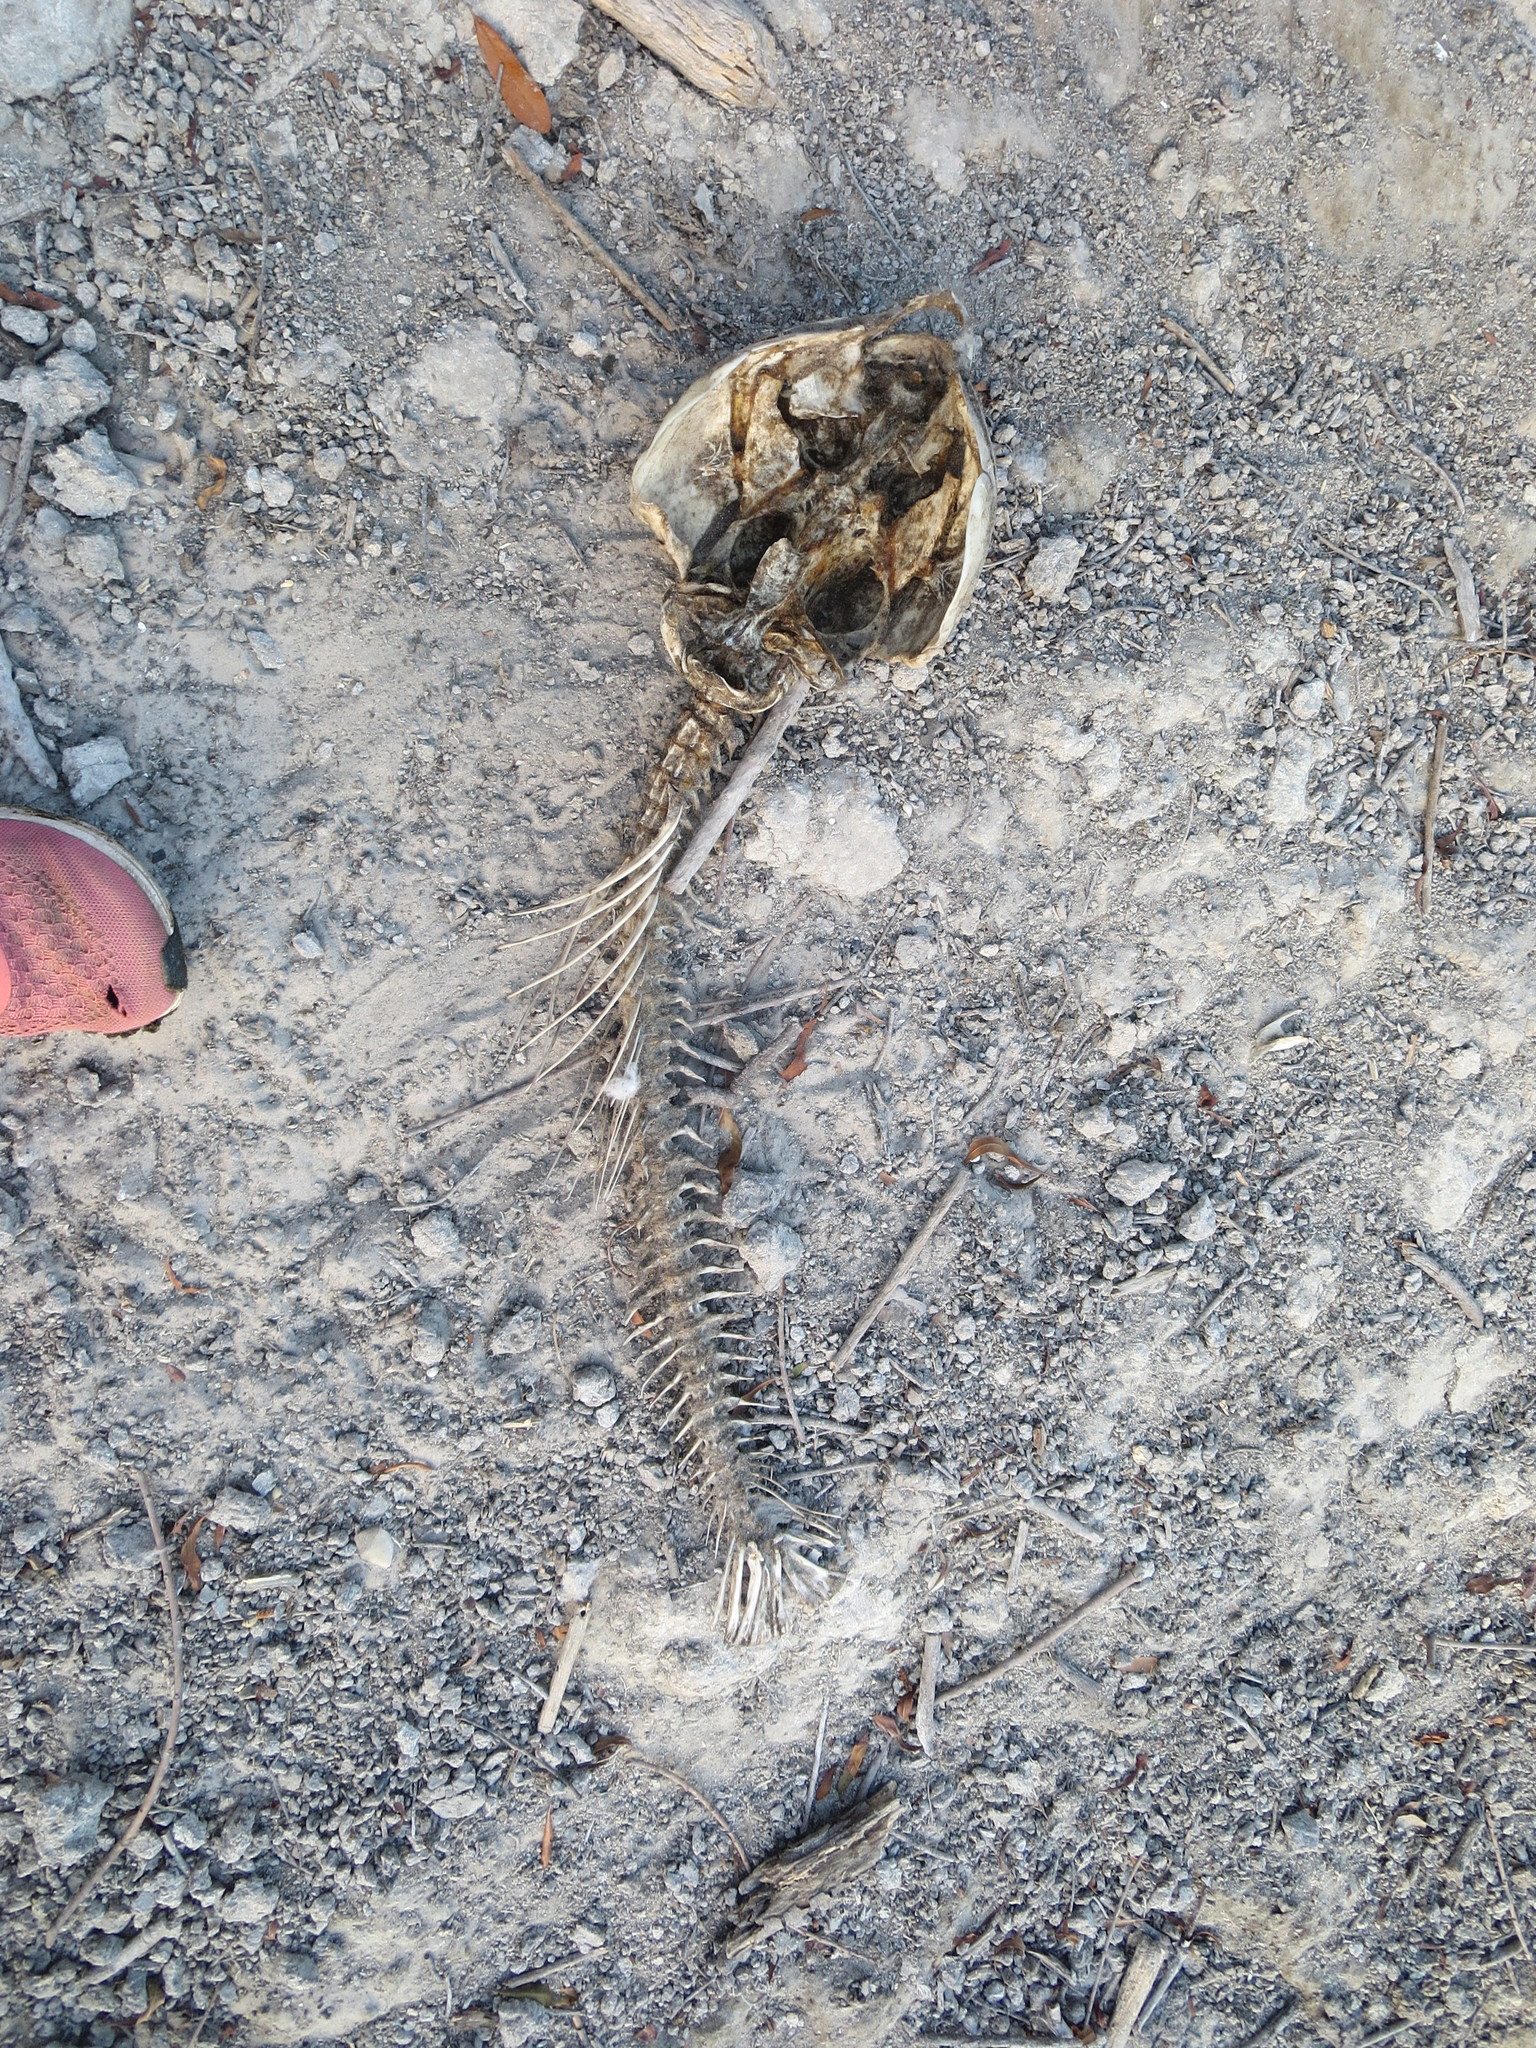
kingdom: Animalia
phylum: Chordata
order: Cypriniformes
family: Cyprinidae
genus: Ctenopharyngodon
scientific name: Ctenopharyngodon idella
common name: Grass carp
